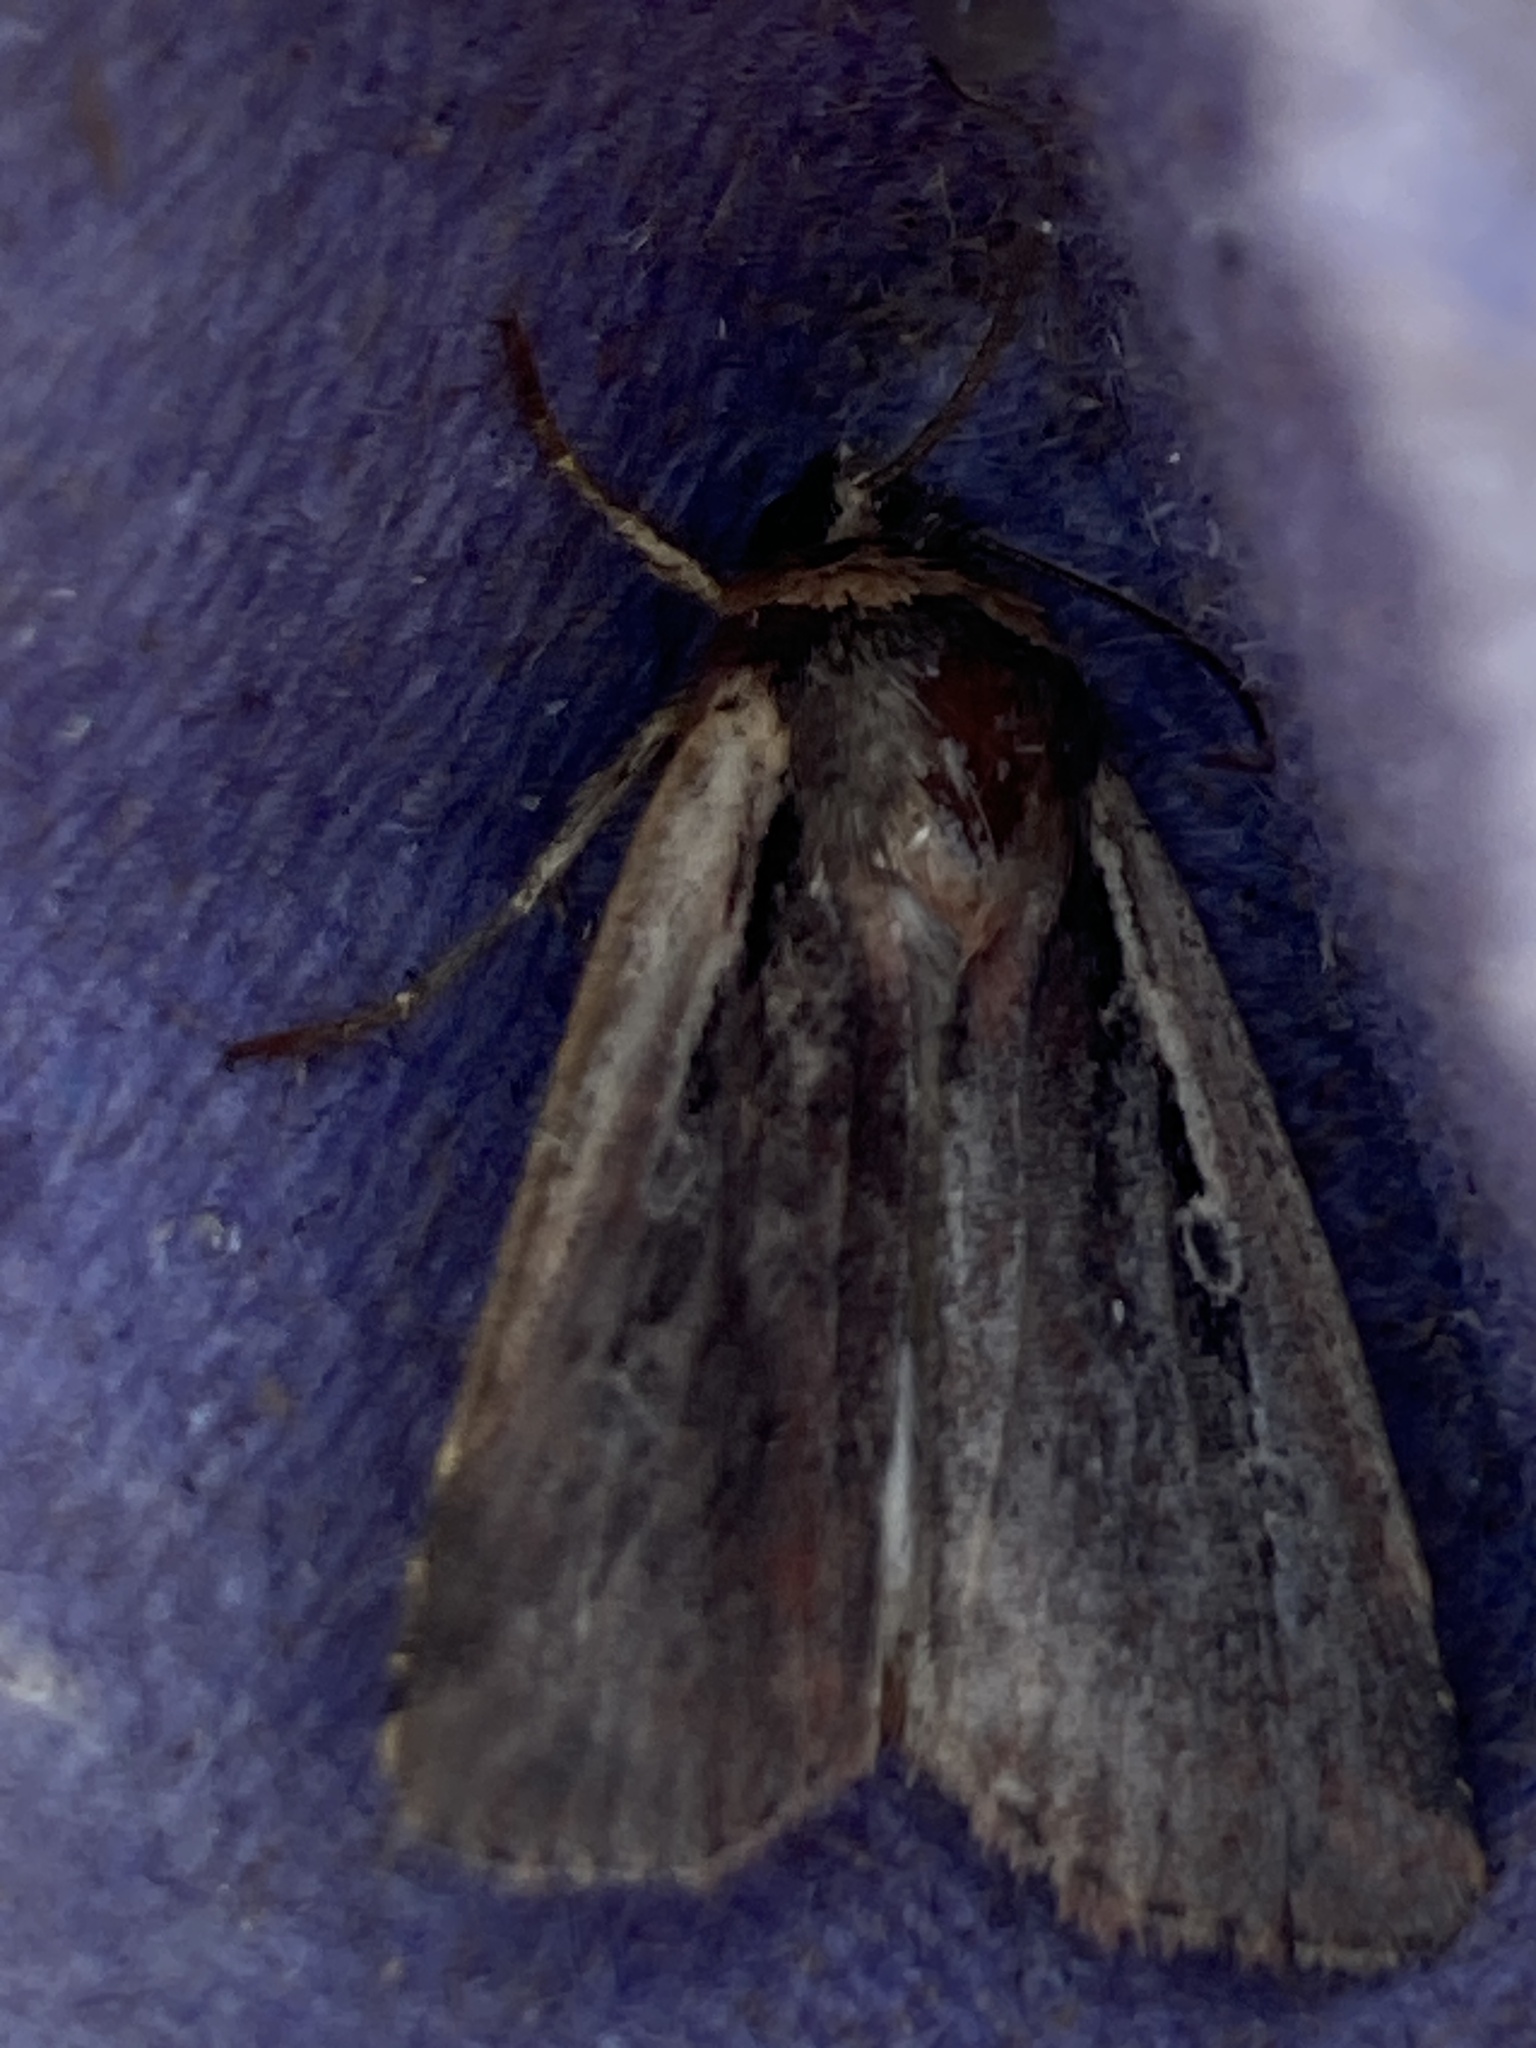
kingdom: Animalia
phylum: Arthropoda
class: Insecta
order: Lepidoptera
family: Noctuidae
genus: Ochropleura
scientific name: Ochropleura plecta
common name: Flame shoulder
